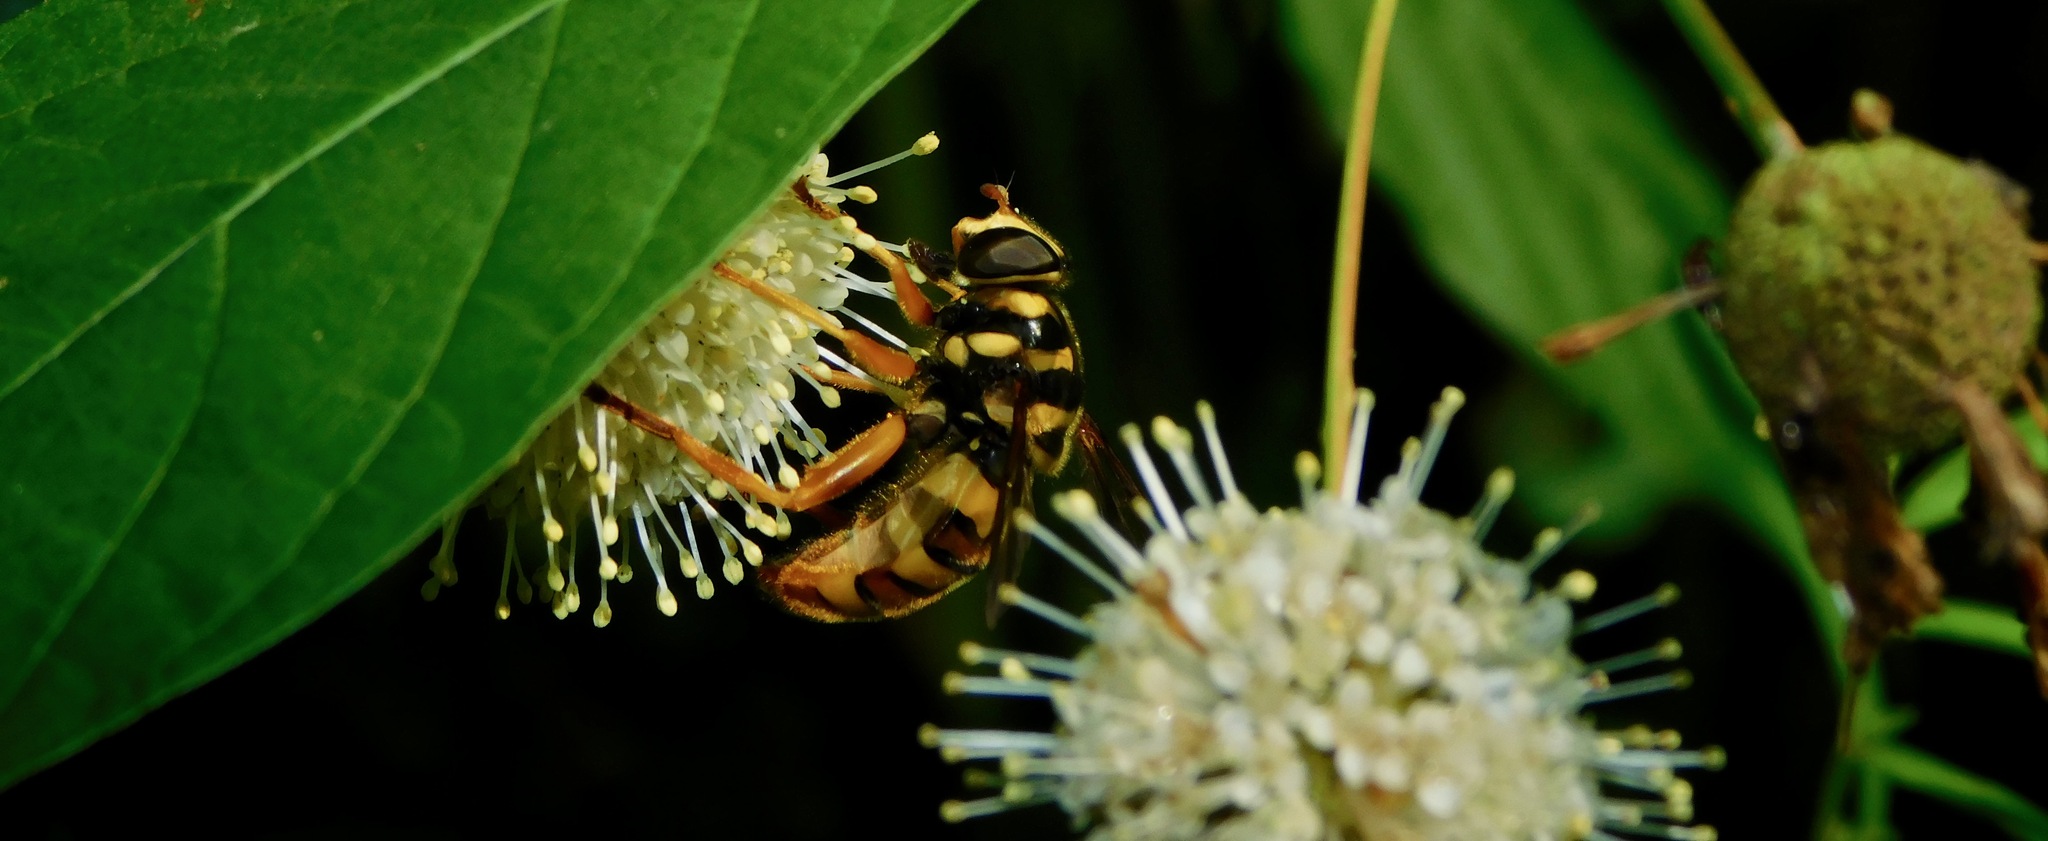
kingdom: Animalia
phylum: Arthropoda
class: Insecta
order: Diptera
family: Syrphidae
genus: Milesia
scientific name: Milesia virginiensis
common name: Virginia giant
